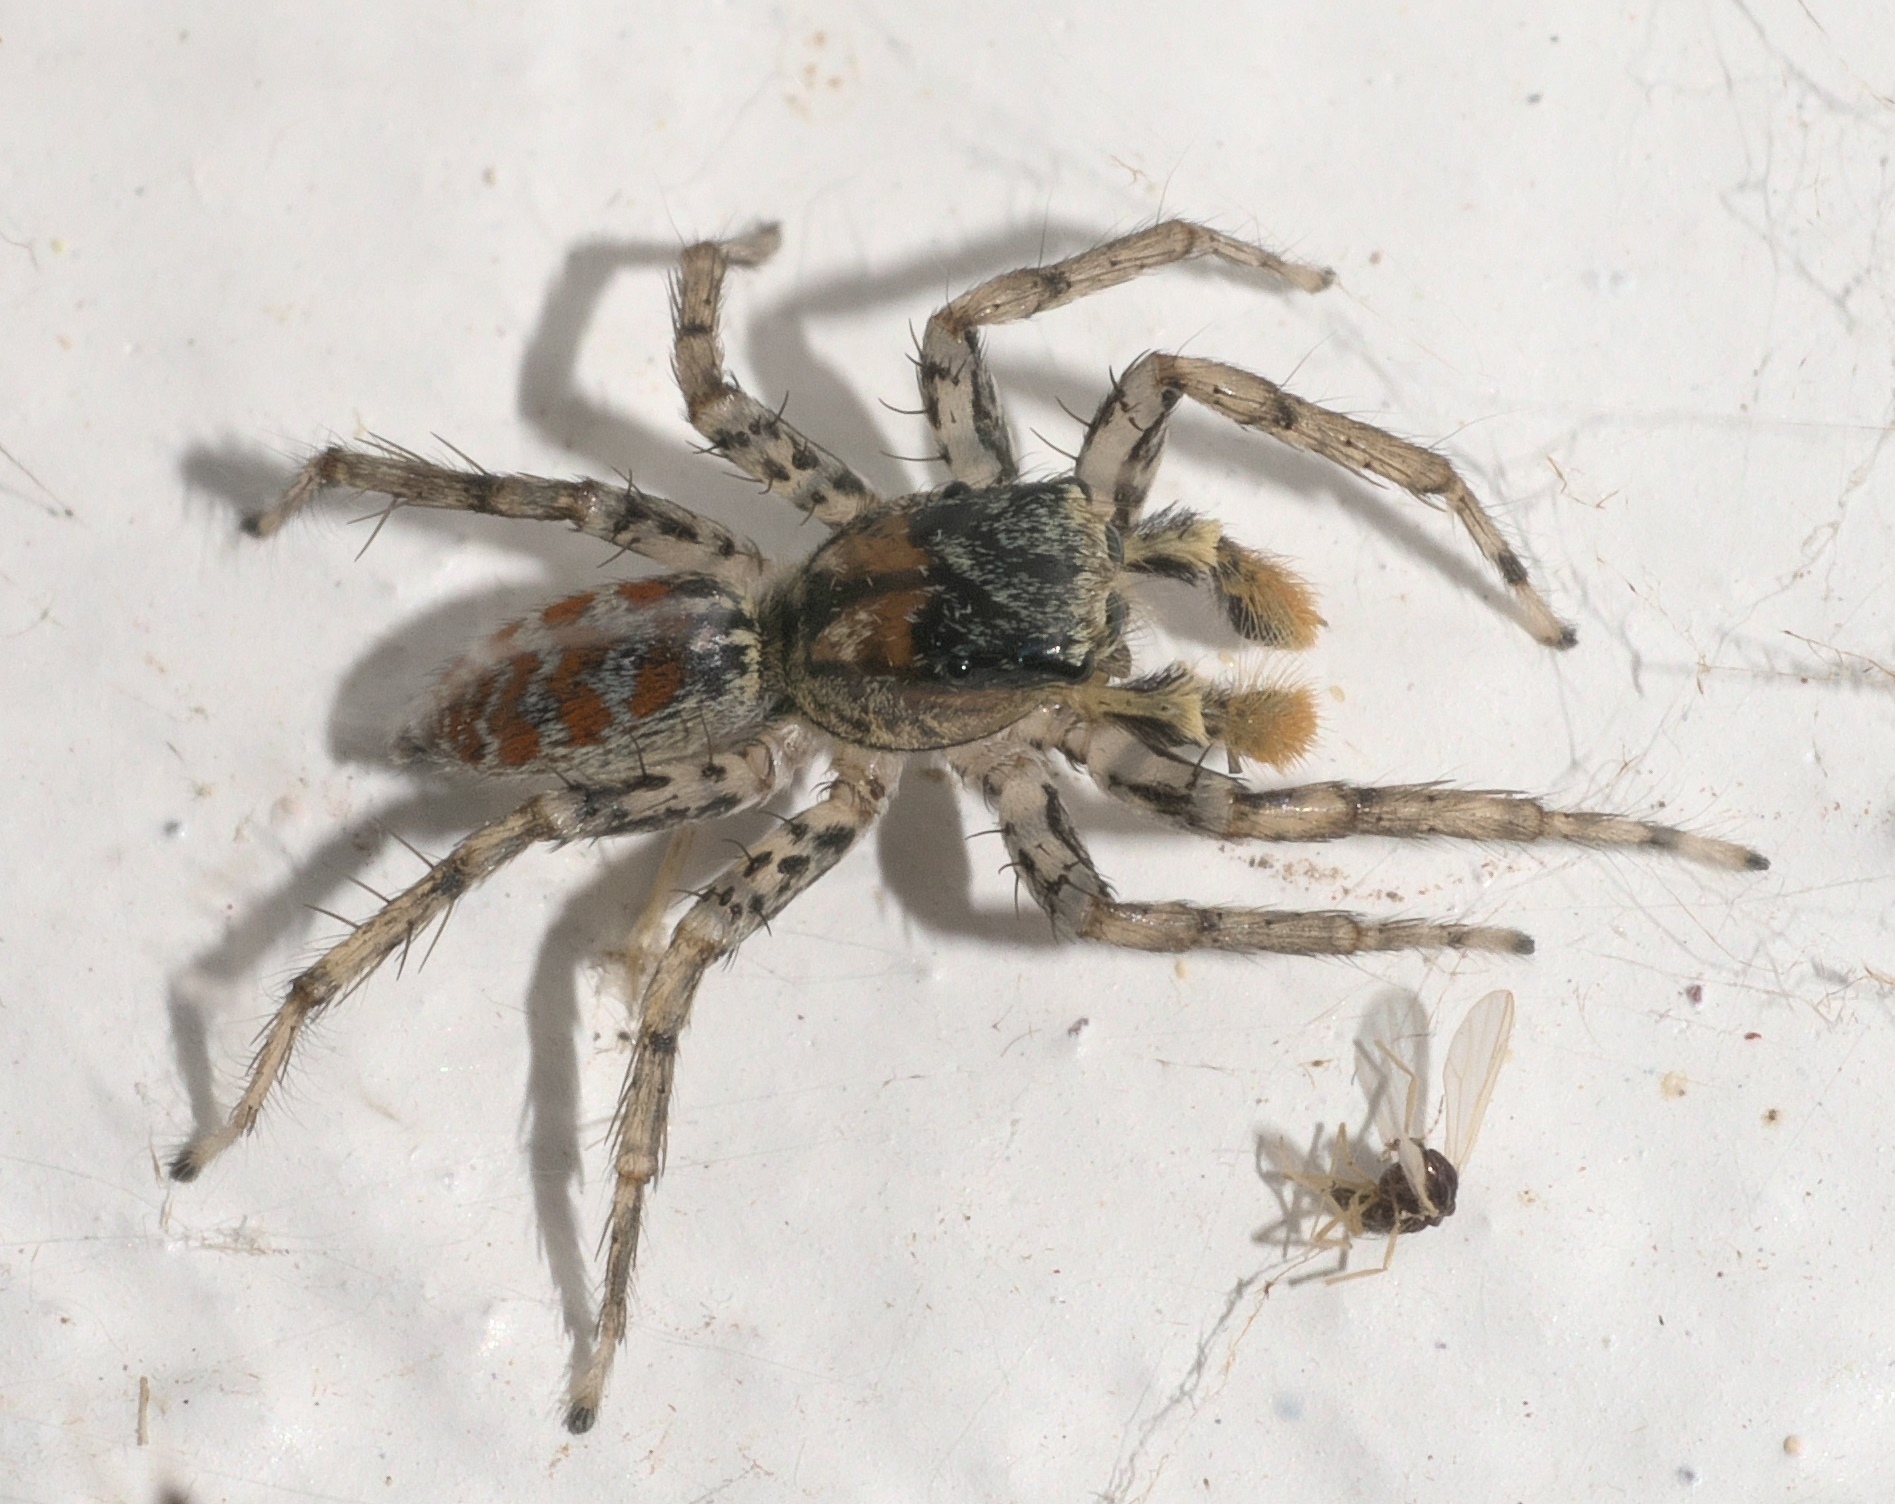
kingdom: Animalia
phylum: Arthropoda
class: Arachnida
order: Araneae
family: Salticidae
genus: Maevia
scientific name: Maevia inclemens
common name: Dimorphic jumper
